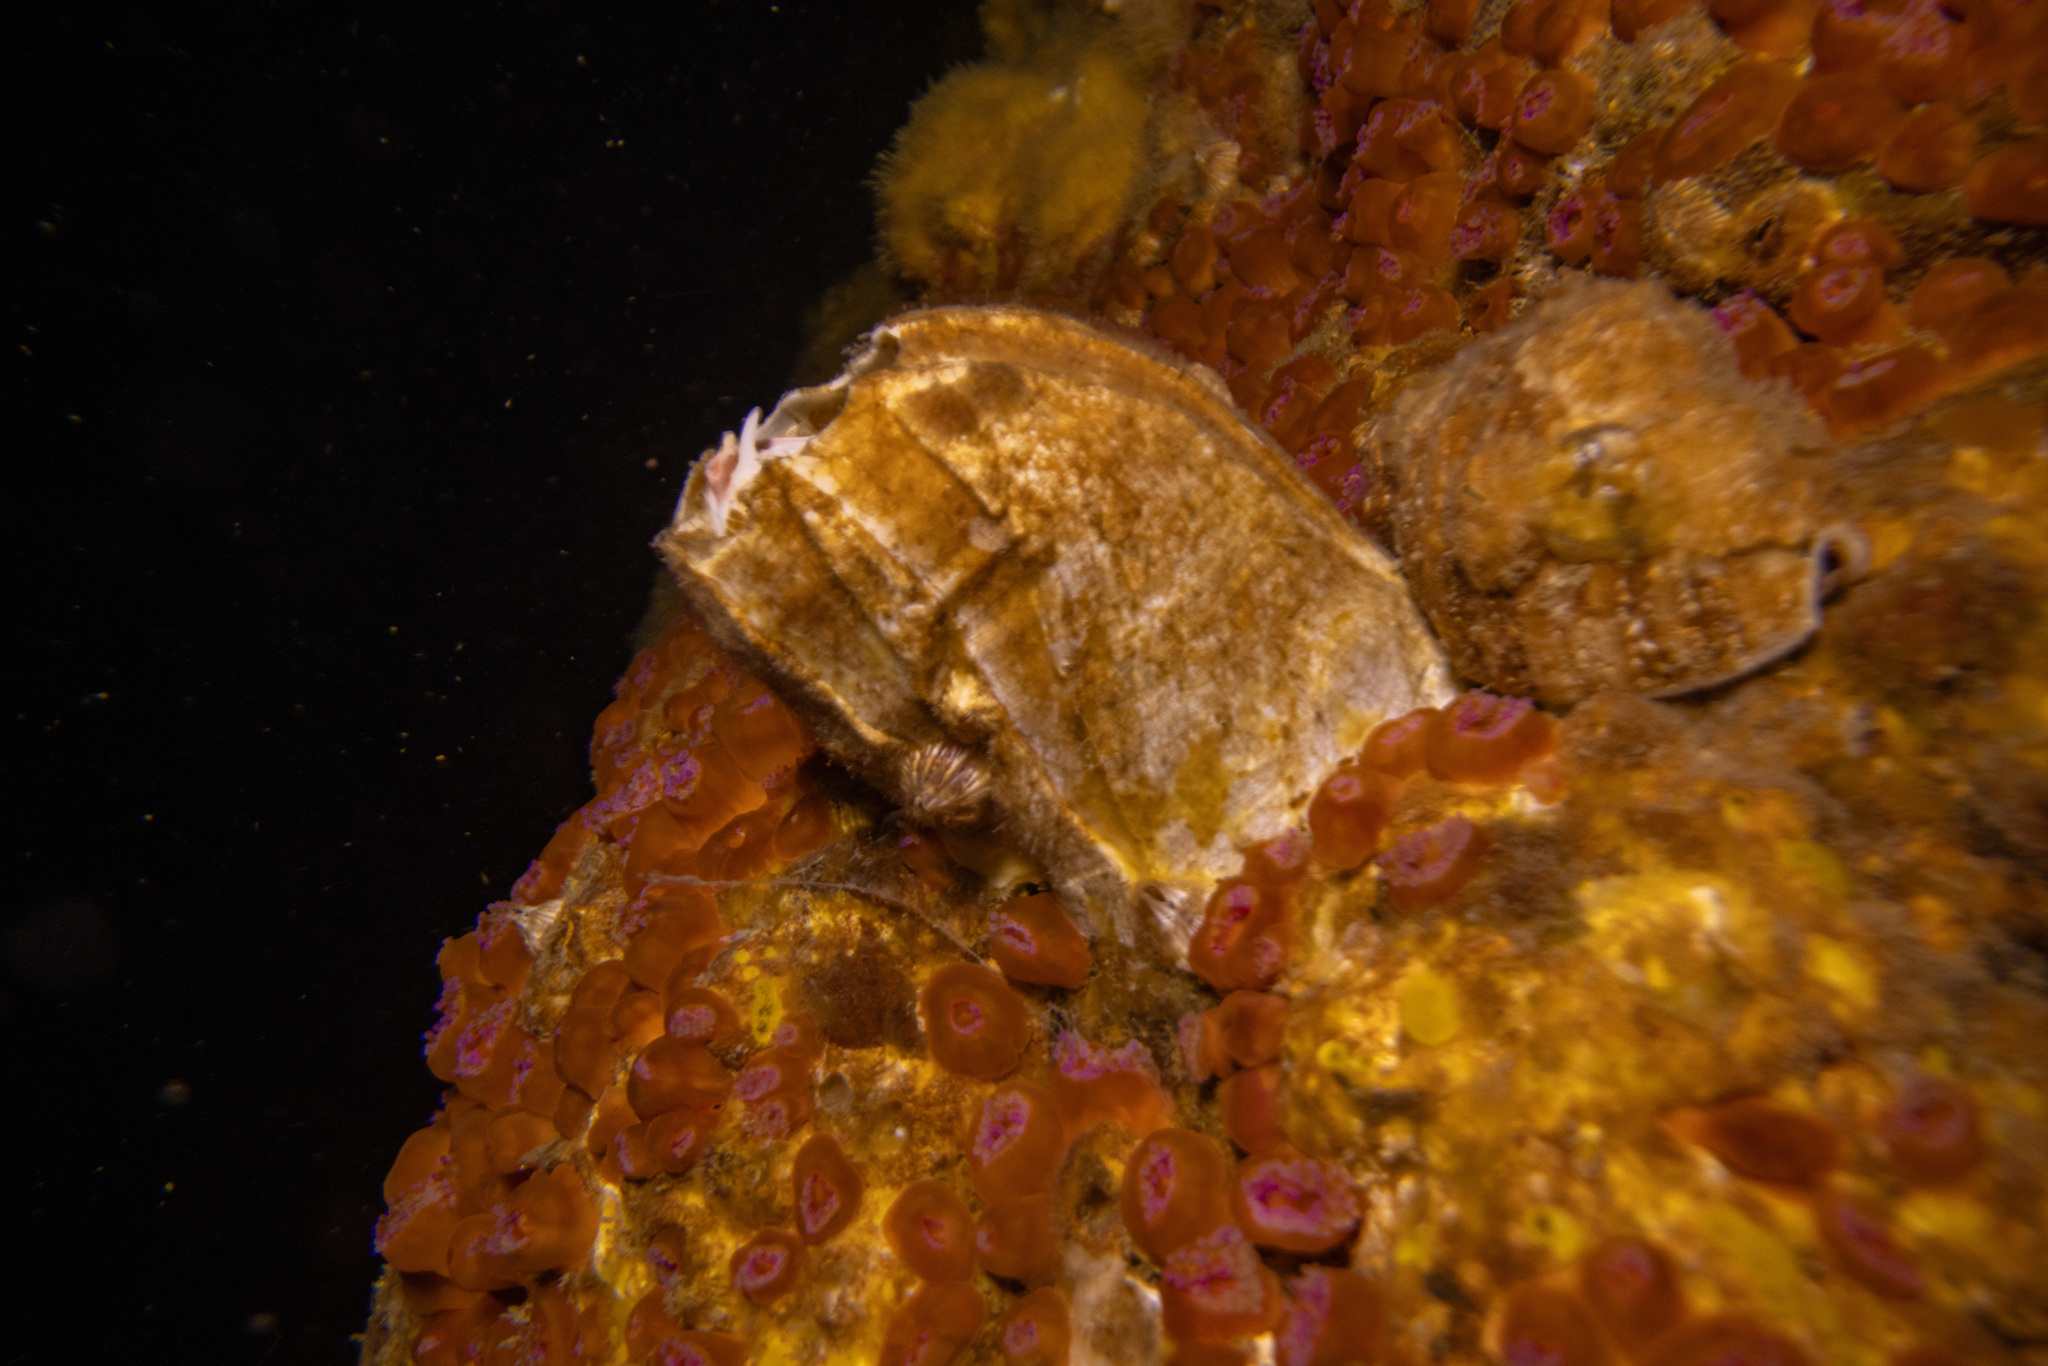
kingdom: Animalia
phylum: Arthropoda
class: Maxillopoda
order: Sessilia
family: Balanidae
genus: Austromegabalanus
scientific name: Austromegabalanus nigrescens
